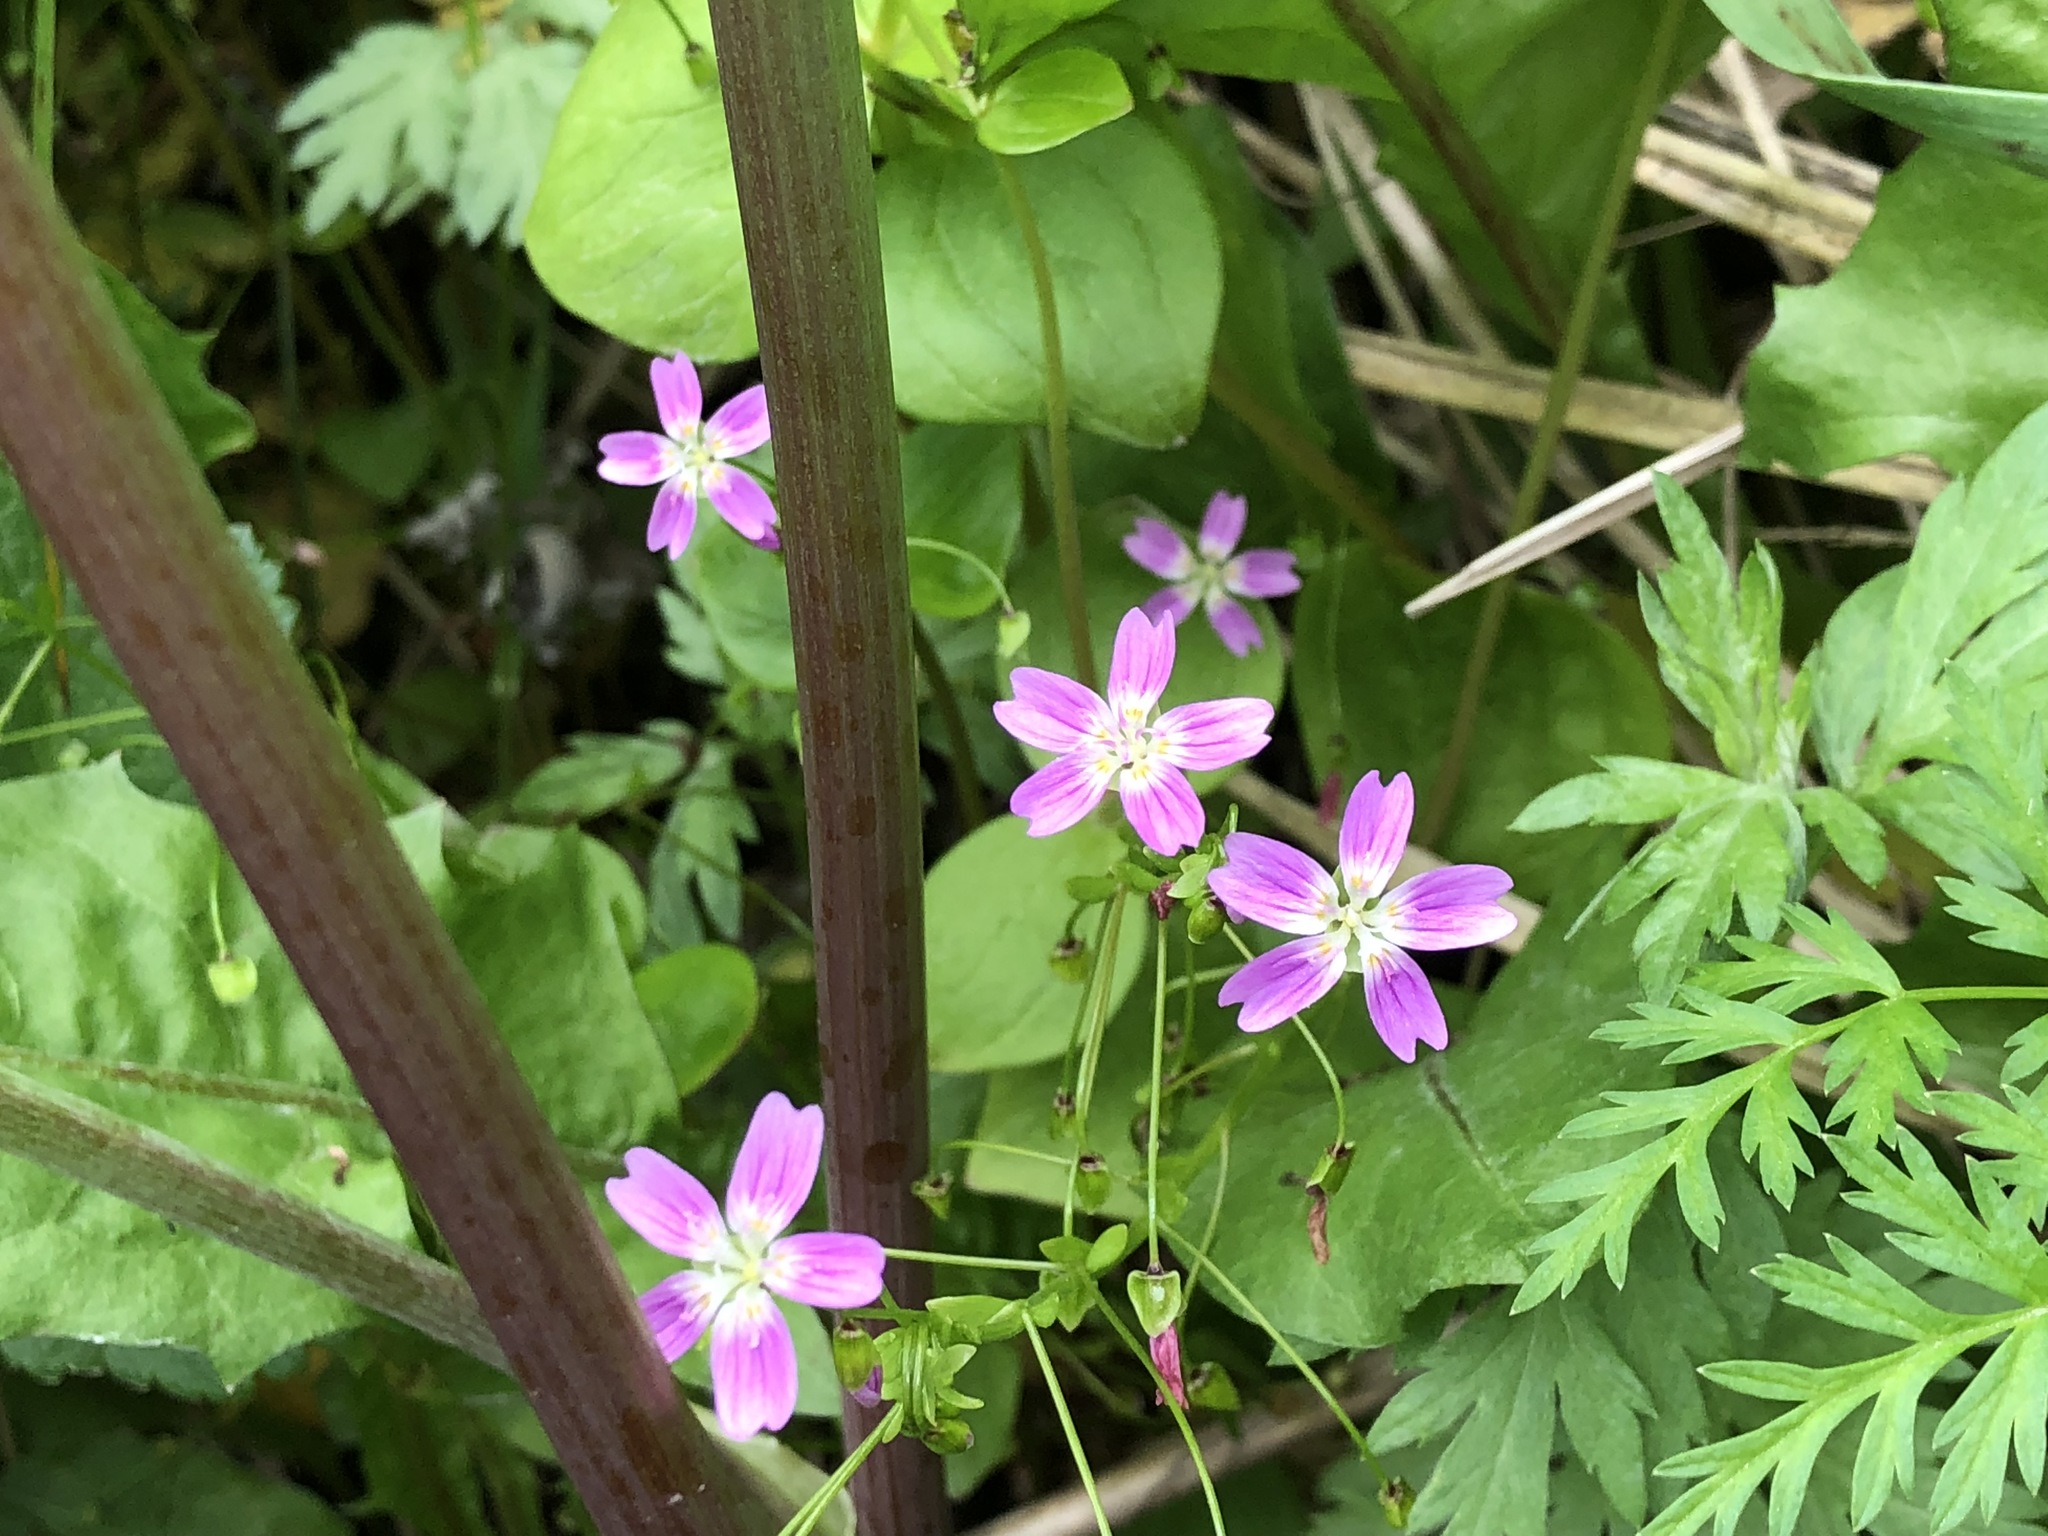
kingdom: Plantae
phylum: Tracheophyta
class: Magnoliopsida
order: Caryophyllales
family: Montiaceae
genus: Claytonia
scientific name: Claytonia sibirica
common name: Pink purslane
